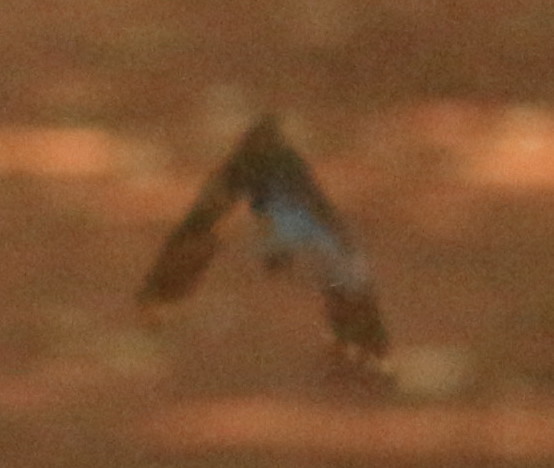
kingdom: Animalia
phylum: Arthropoda
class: Insecta
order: Lepidoptera
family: Nymphalidae
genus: Morpho
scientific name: Morpho helenor
